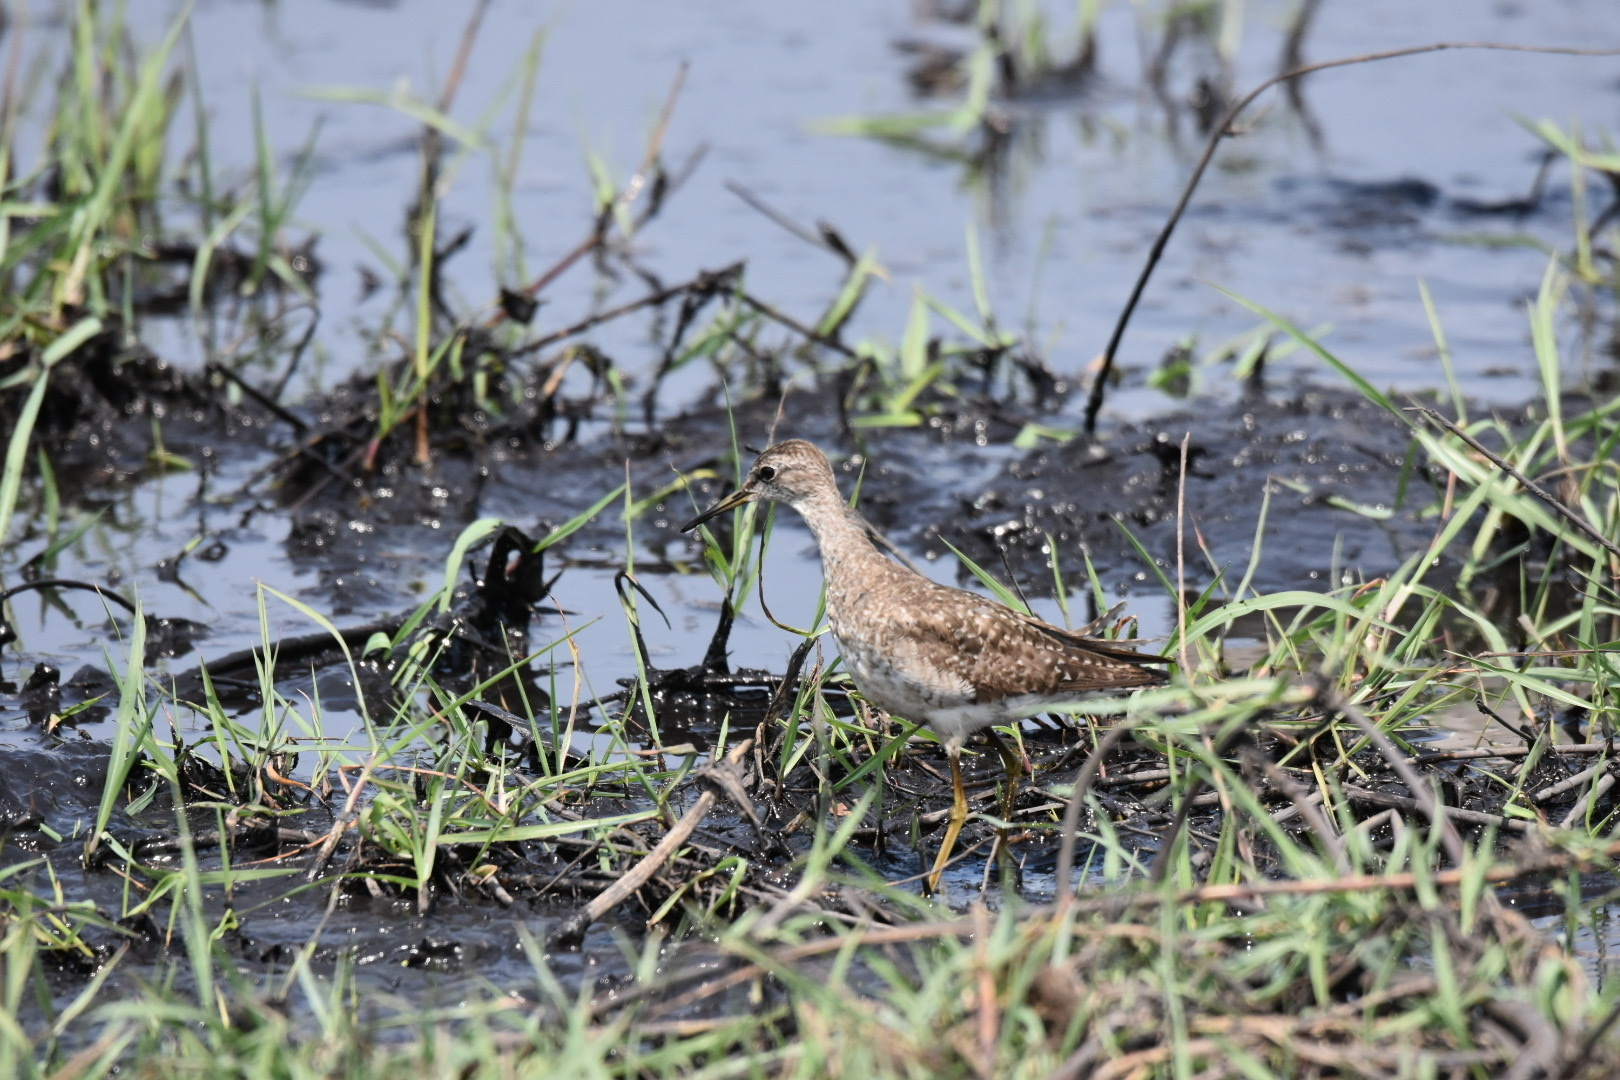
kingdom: Animalia
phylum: Chordata
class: Aves
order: Charadriiformes
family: Scolopacidae
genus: Tringa
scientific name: Tringa glareola
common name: Wood sandpiper
